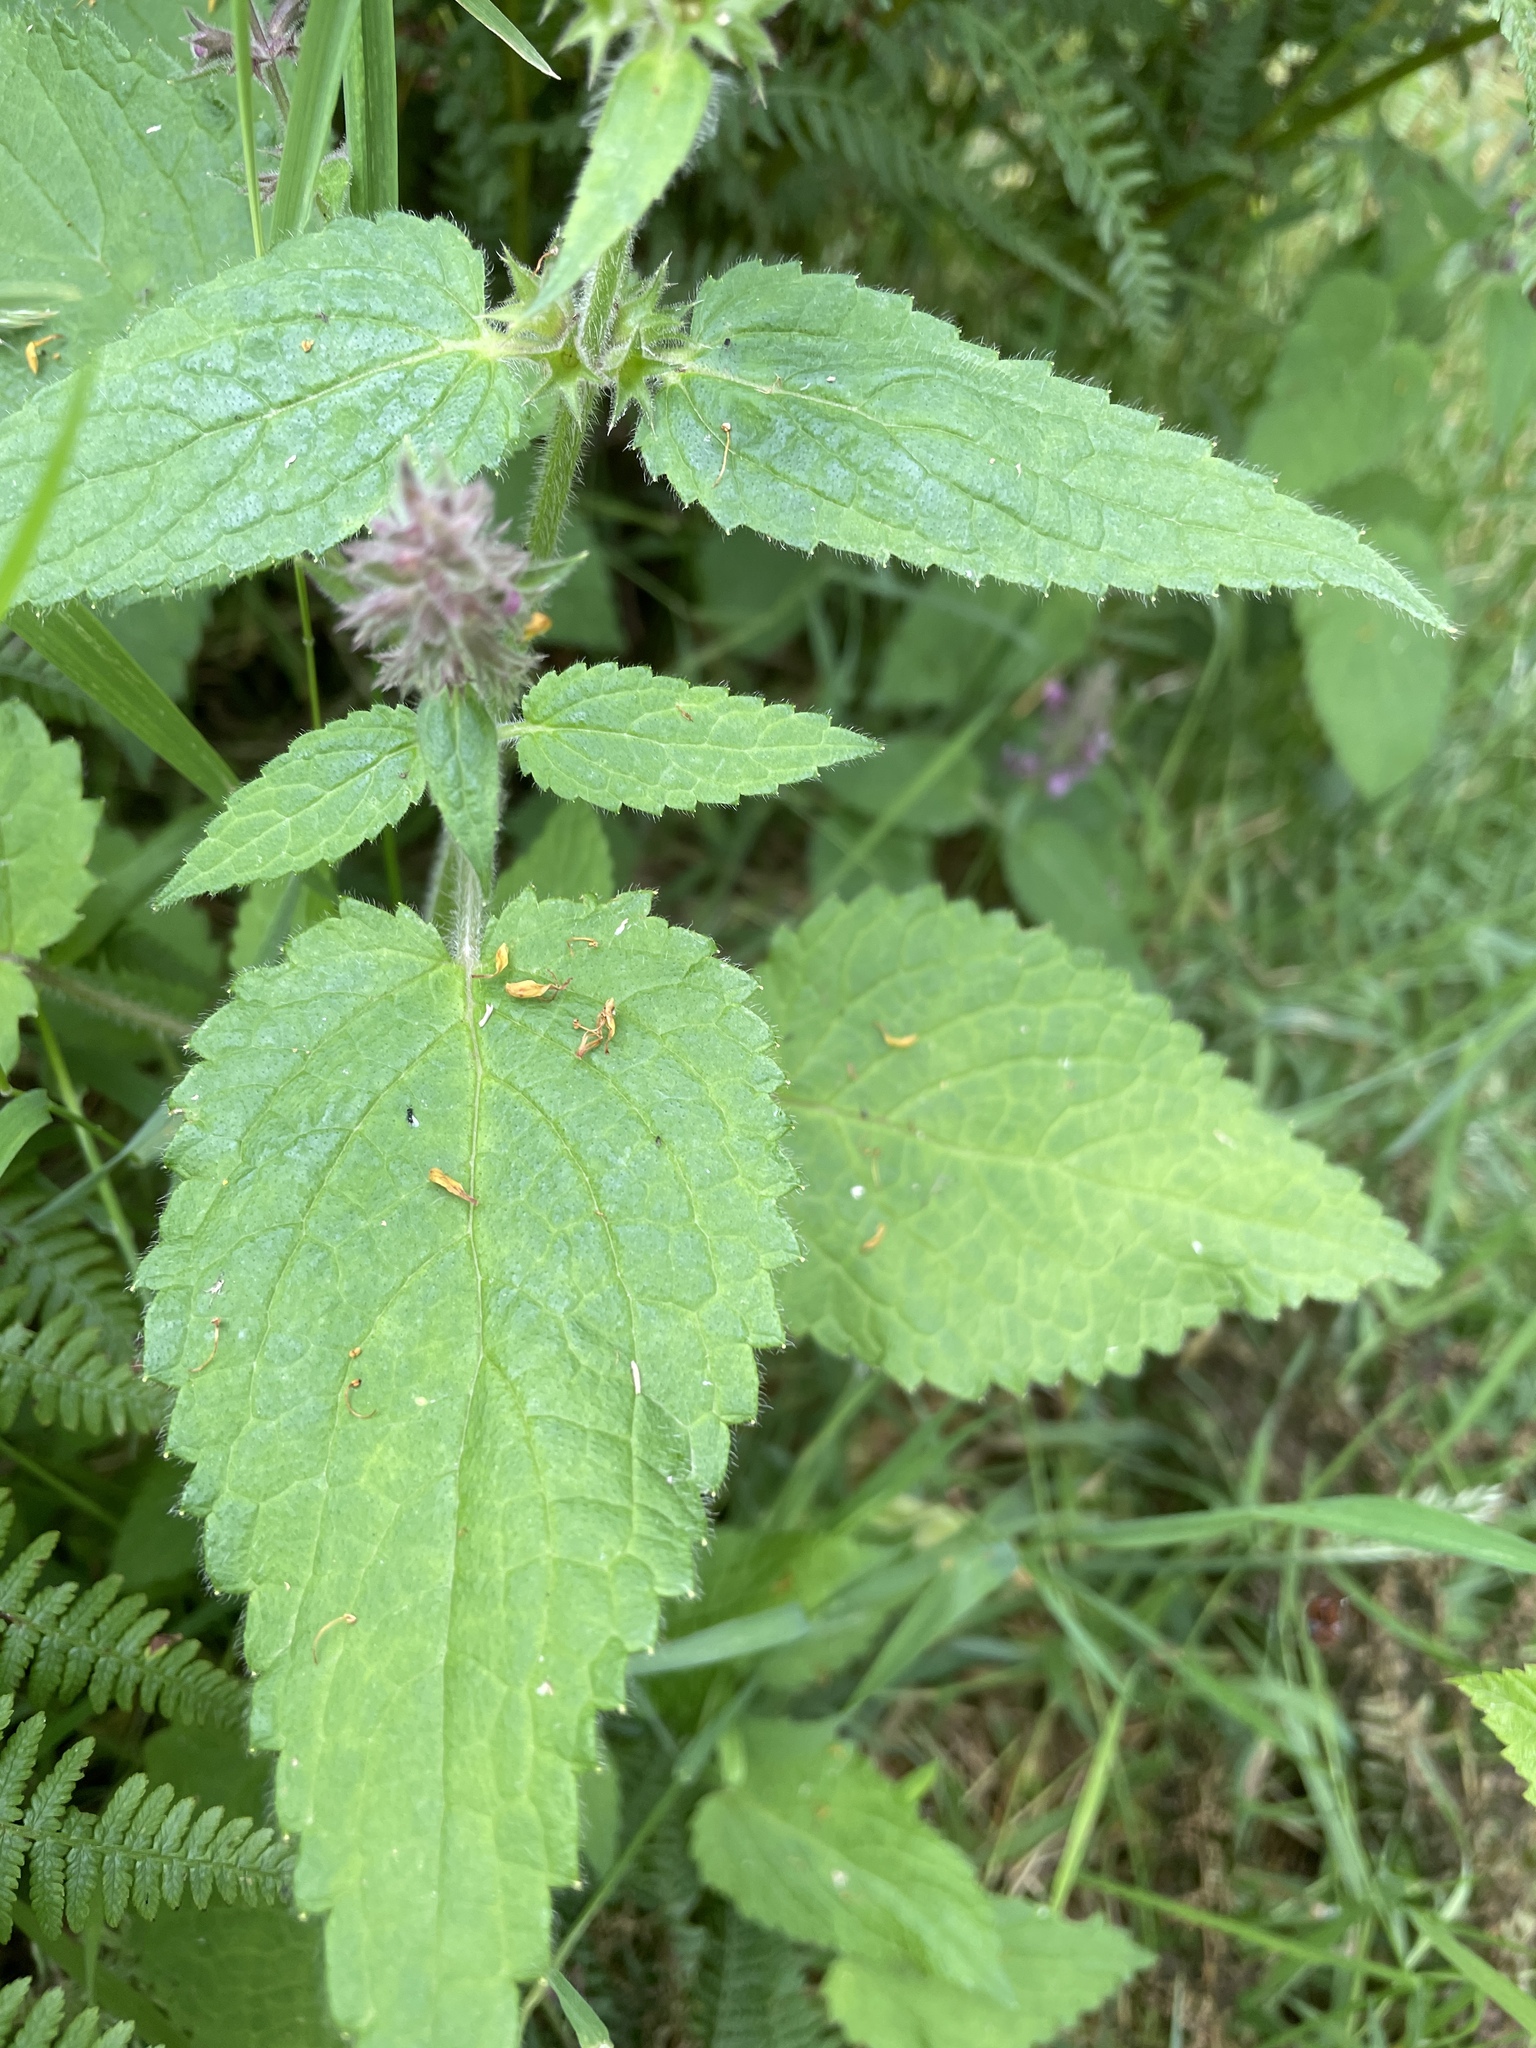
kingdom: Plantae
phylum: Tracheophyta
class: Magnoliopsida
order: Lamiales
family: Lamiaceae
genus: Stachys
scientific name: Stachys sylvatica
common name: Hedge woundwort
